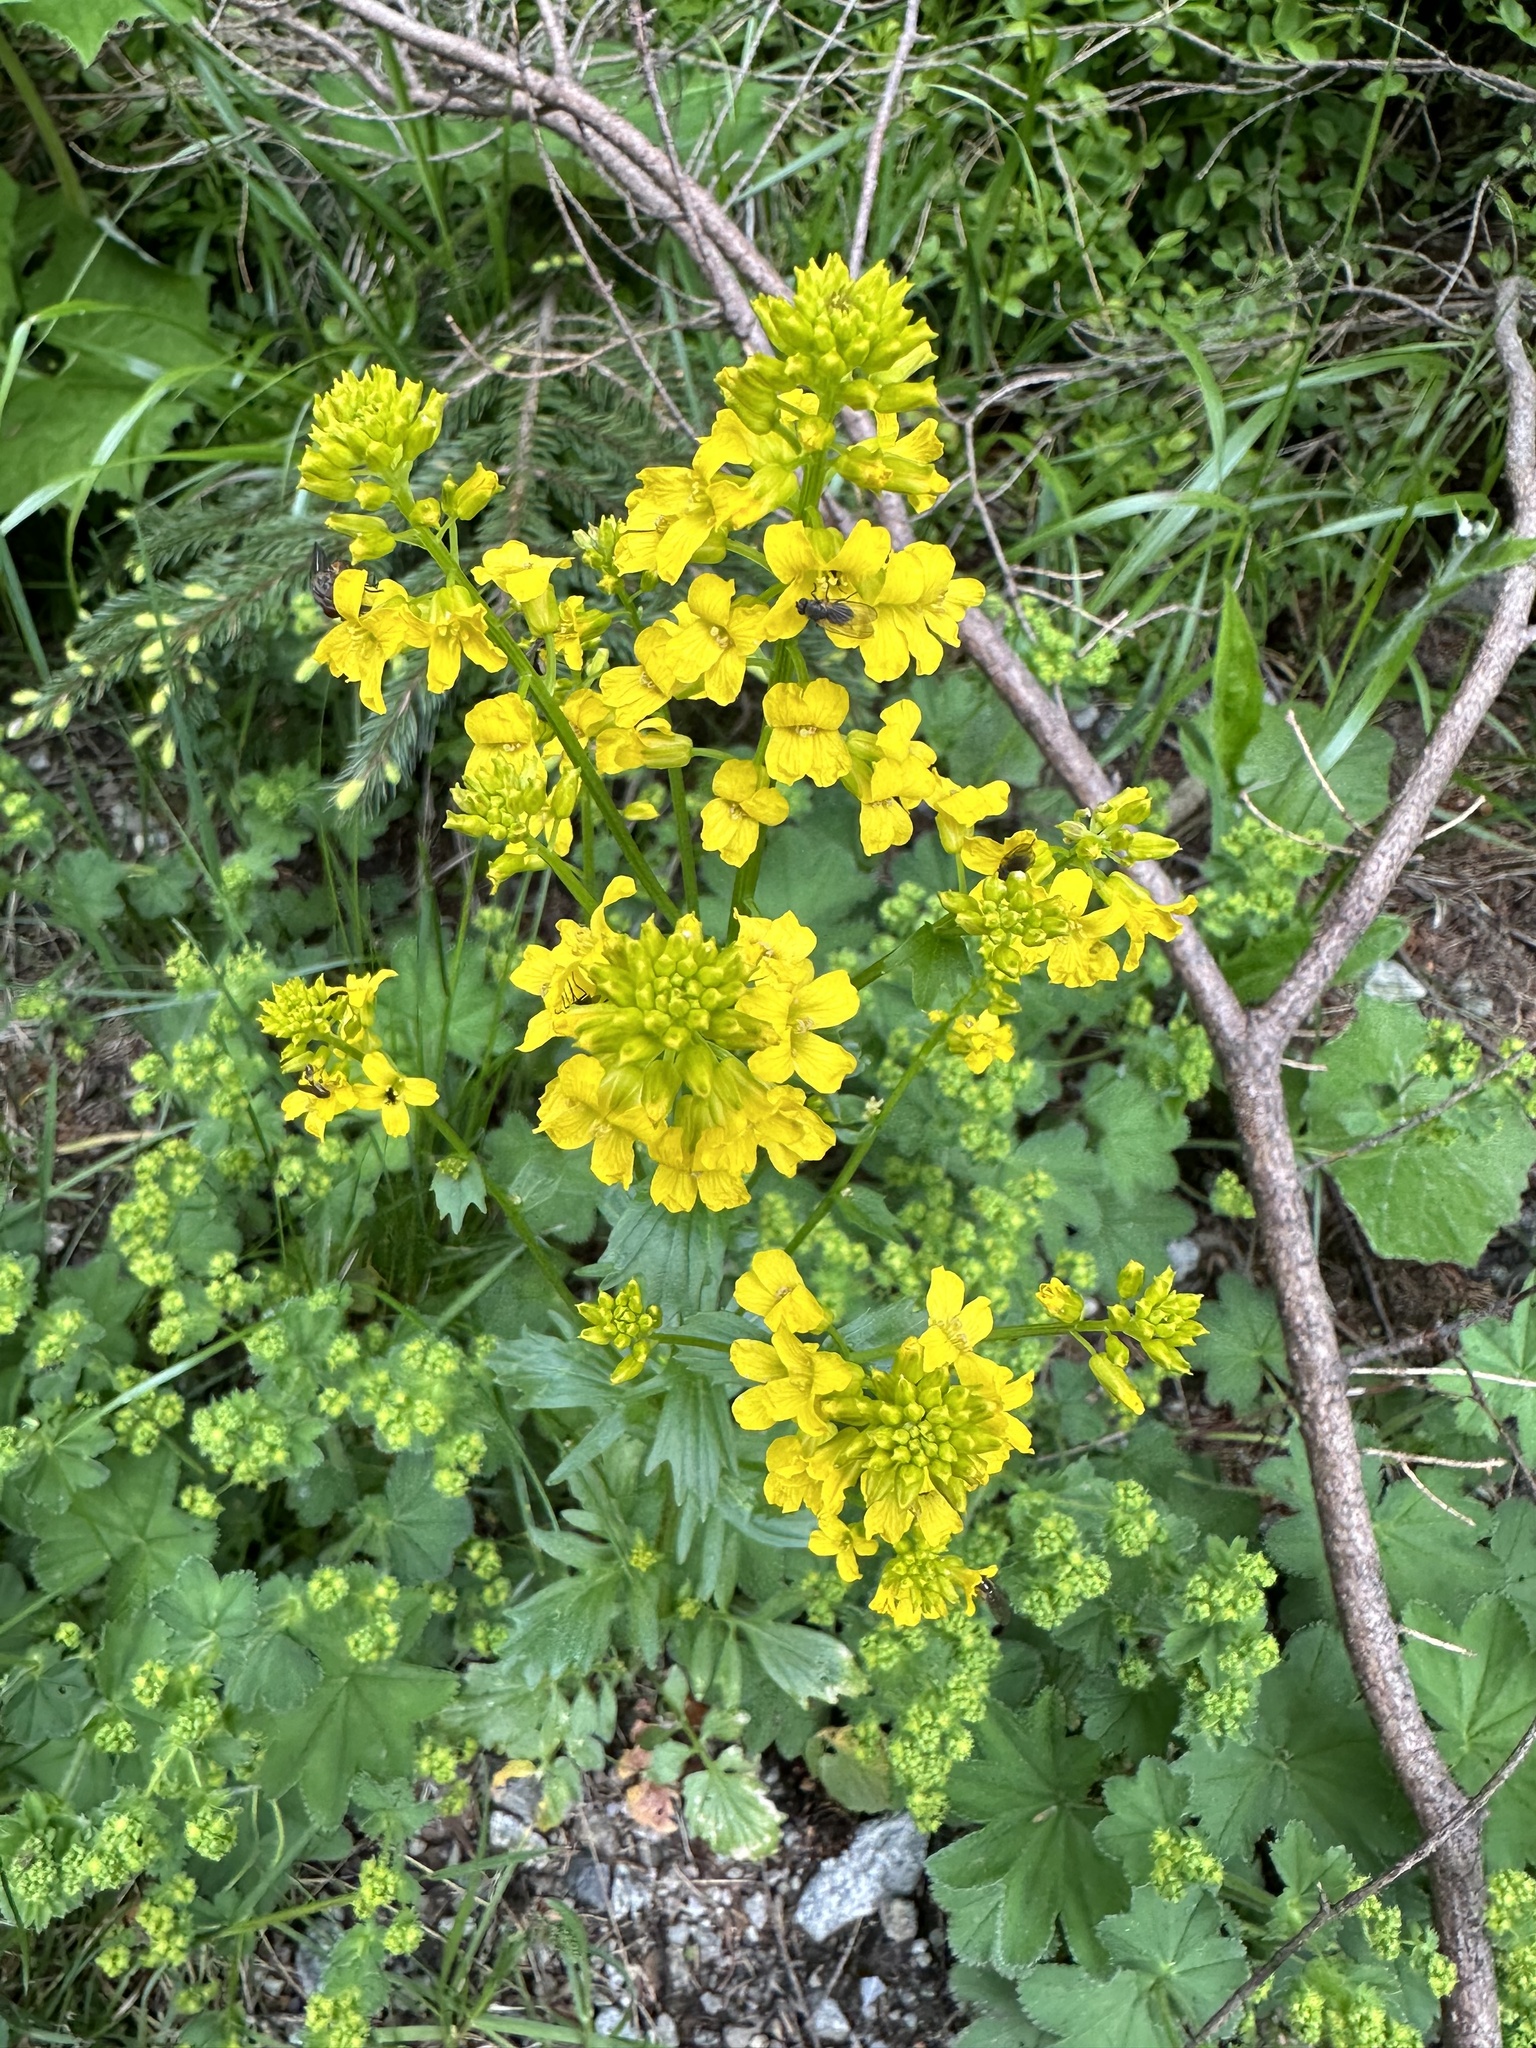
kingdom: Plantae
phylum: Tracheophyta
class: Magnoliopsida
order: Brassicales
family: Brassicaceae
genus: Barbarea
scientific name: Barbarea vulgaris
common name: Cressy-greens
